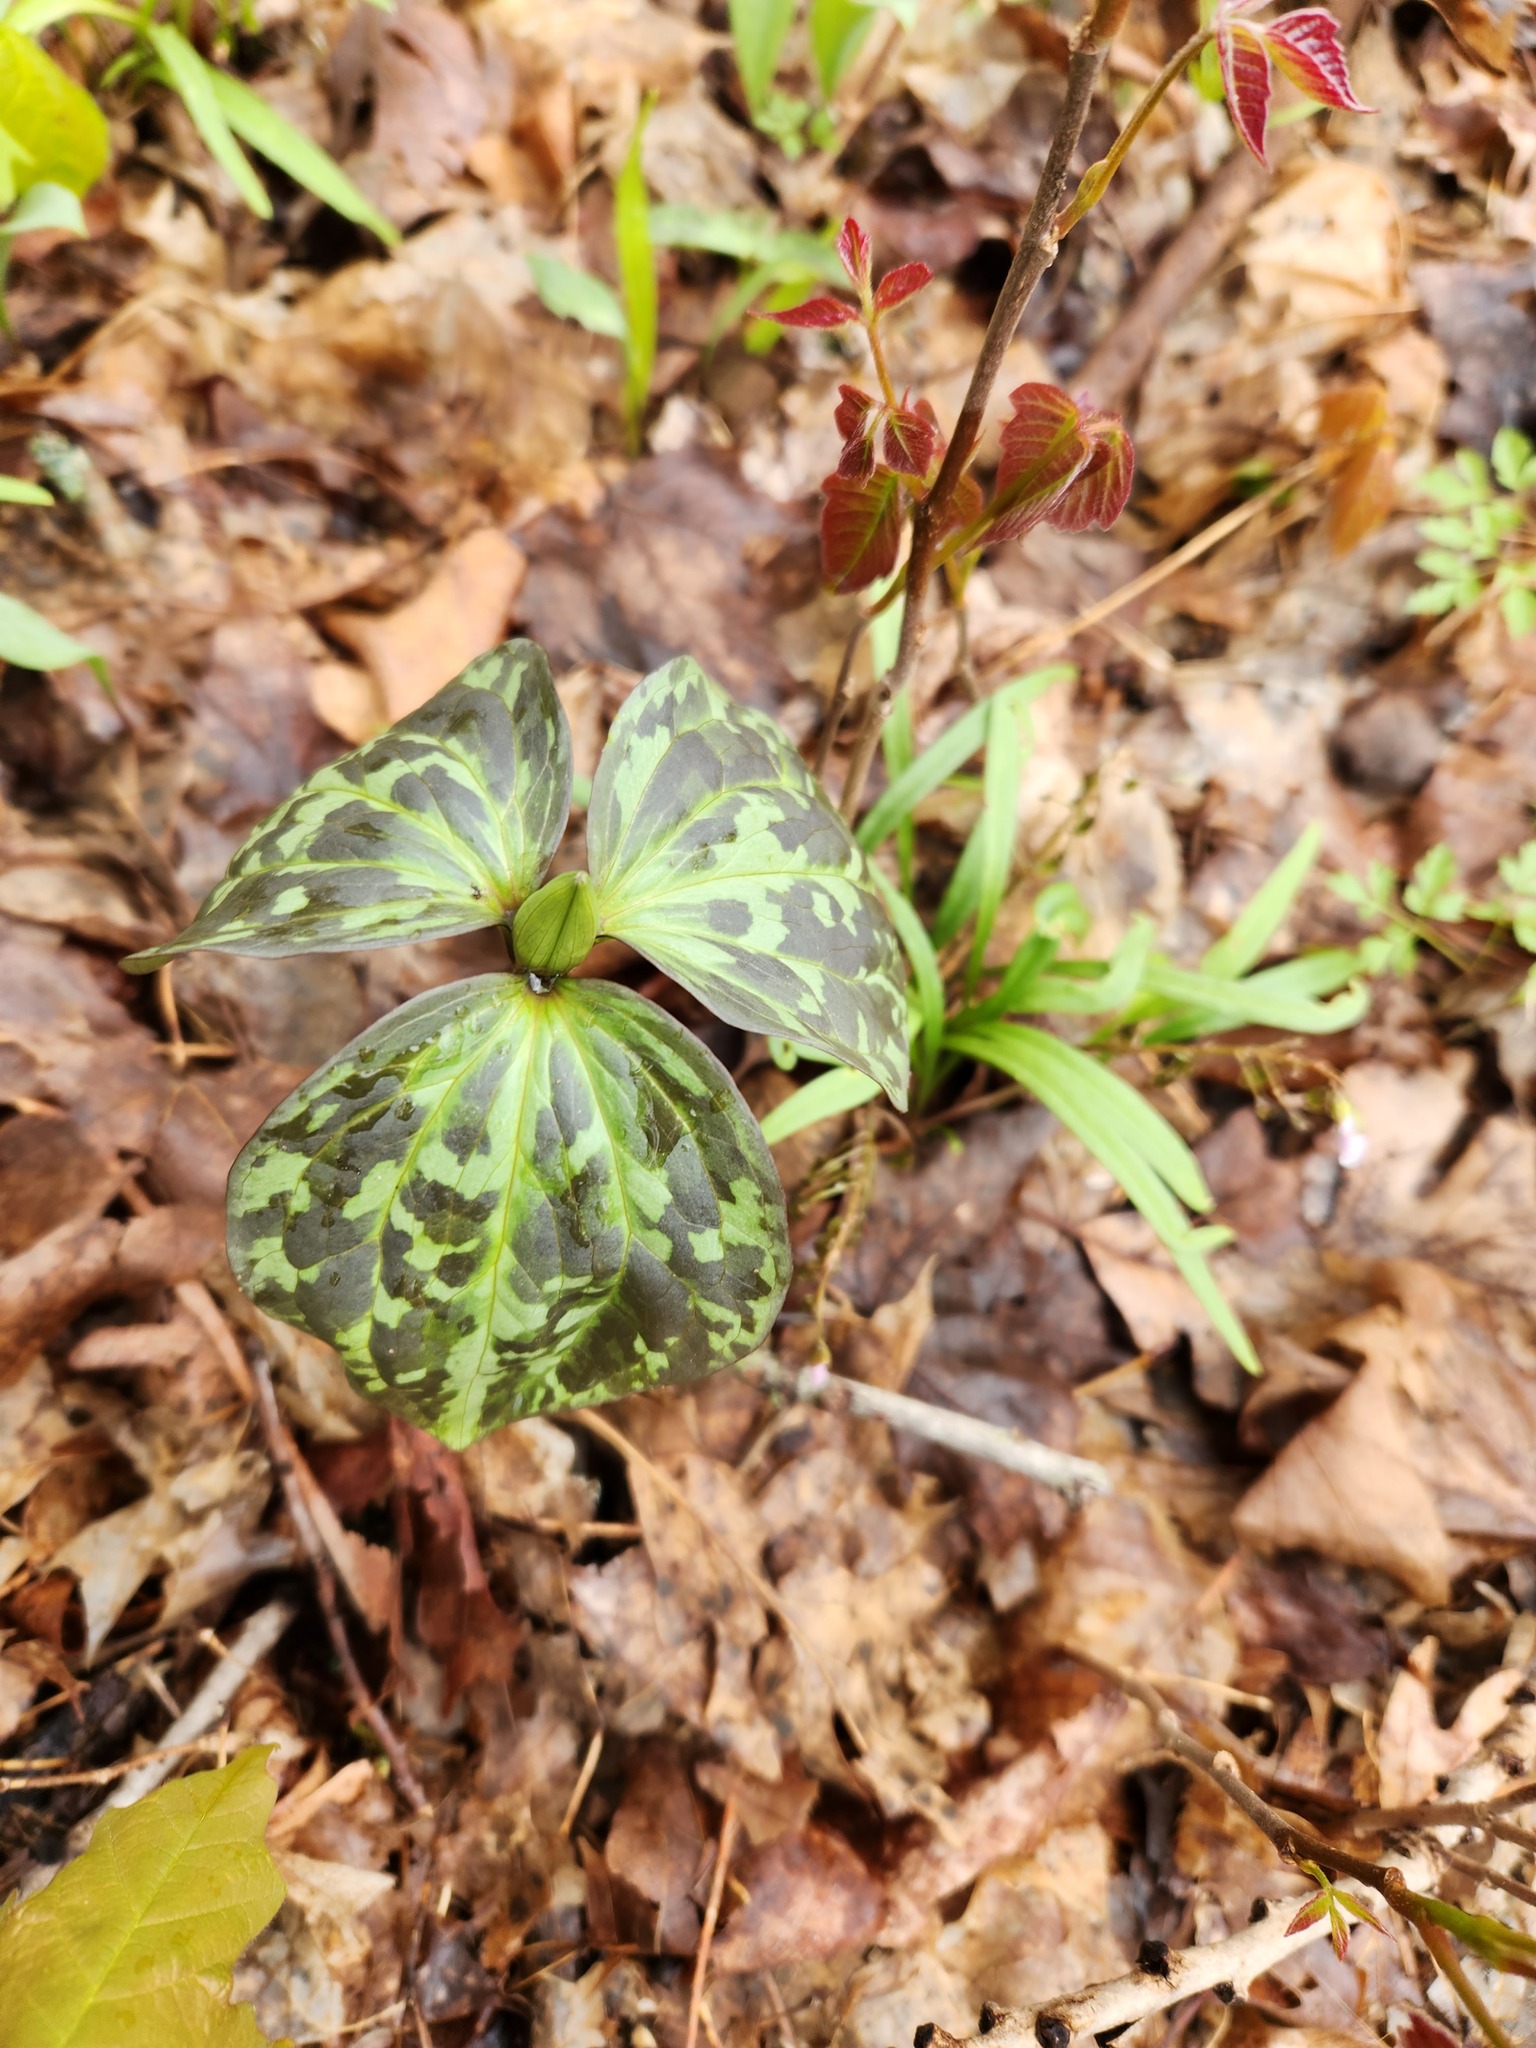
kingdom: Plantae
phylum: Tracheophyta
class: Liliopsida
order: Liliales
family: Melanthiaceae
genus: Trillium
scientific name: Trillium recurvatum
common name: Bloody butcher
